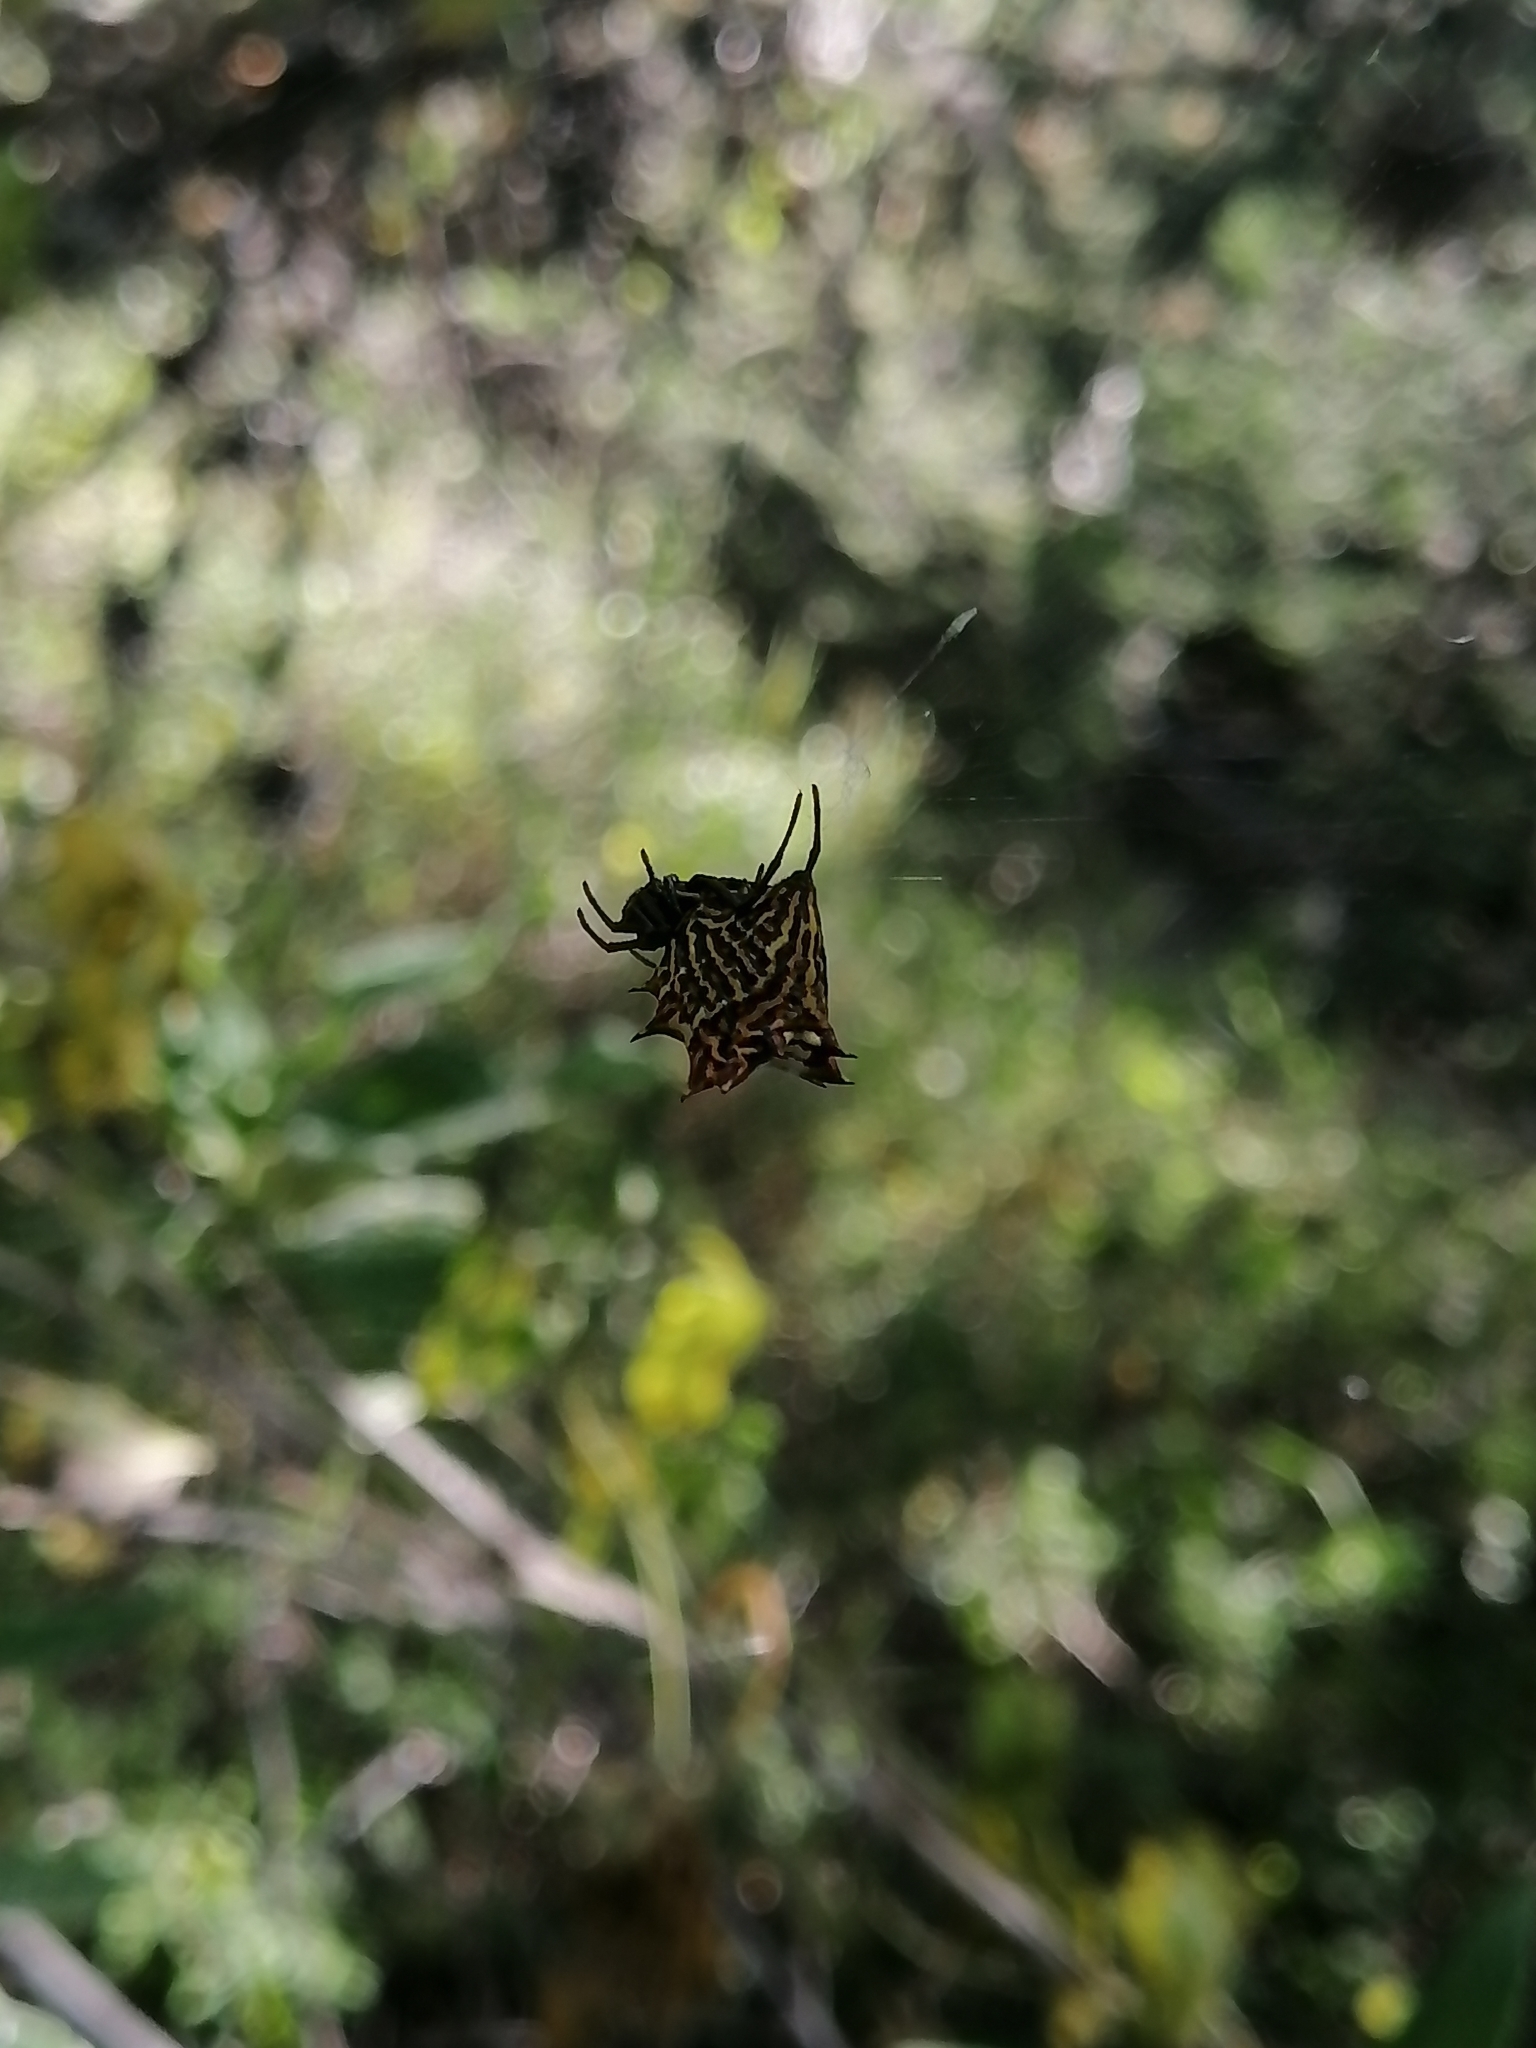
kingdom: Animalia
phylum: Arthropoda
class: Arachnida
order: Araneae
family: Araneidae
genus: Micrathena
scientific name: Micrathena gracilis
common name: Orb weavers
